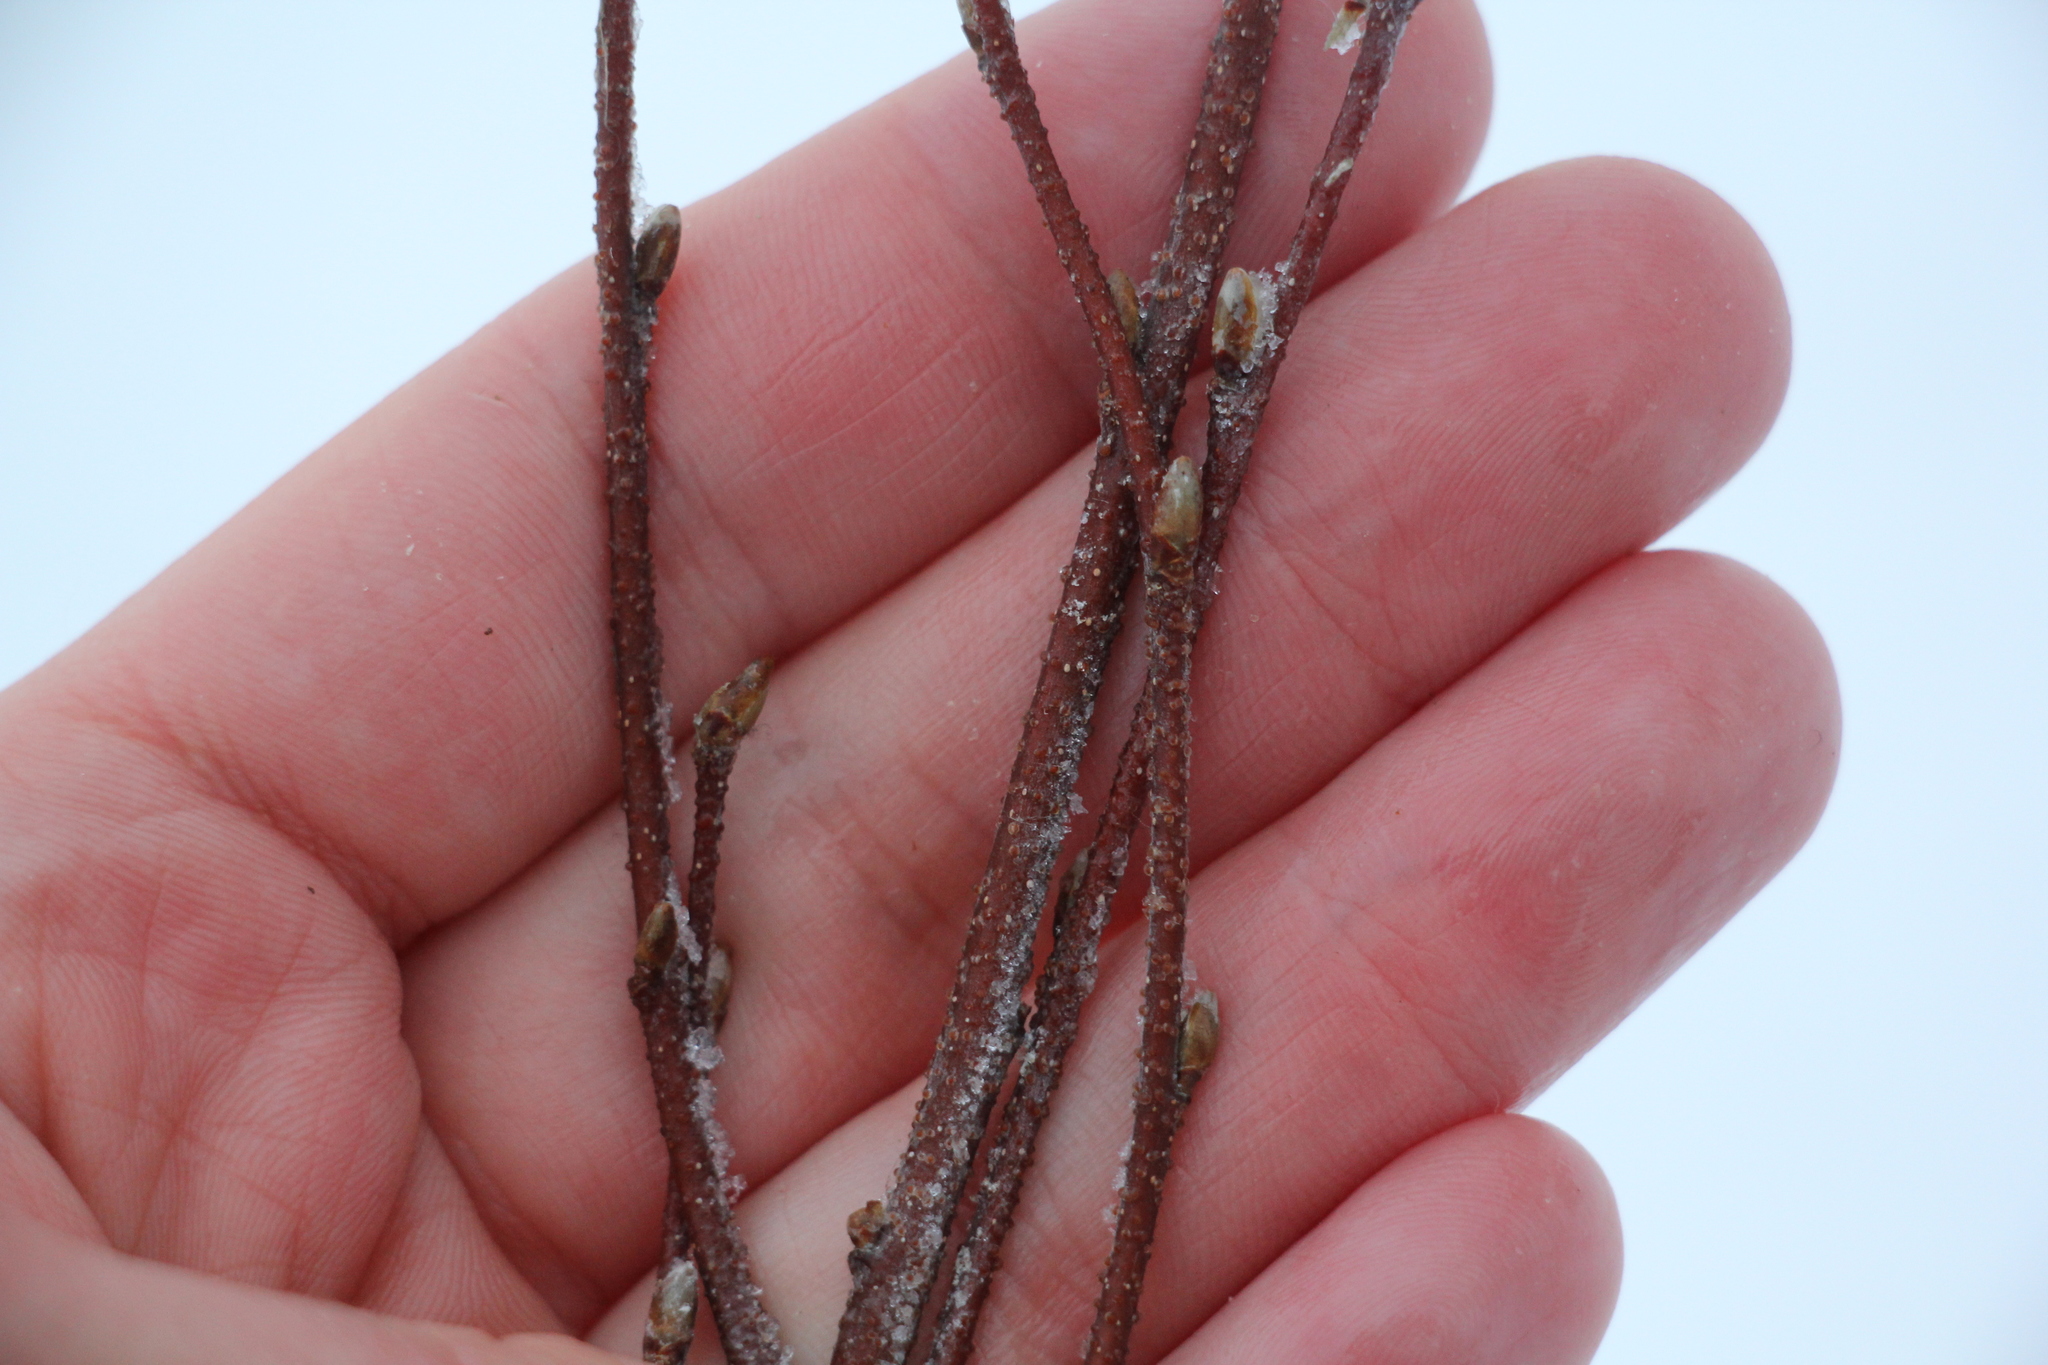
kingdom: Plantae
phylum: Tracheophyta
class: Magnoliopsida
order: Fagales
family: Betulaceae
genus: Betula
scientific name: Betula pendula
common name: Silver birch
